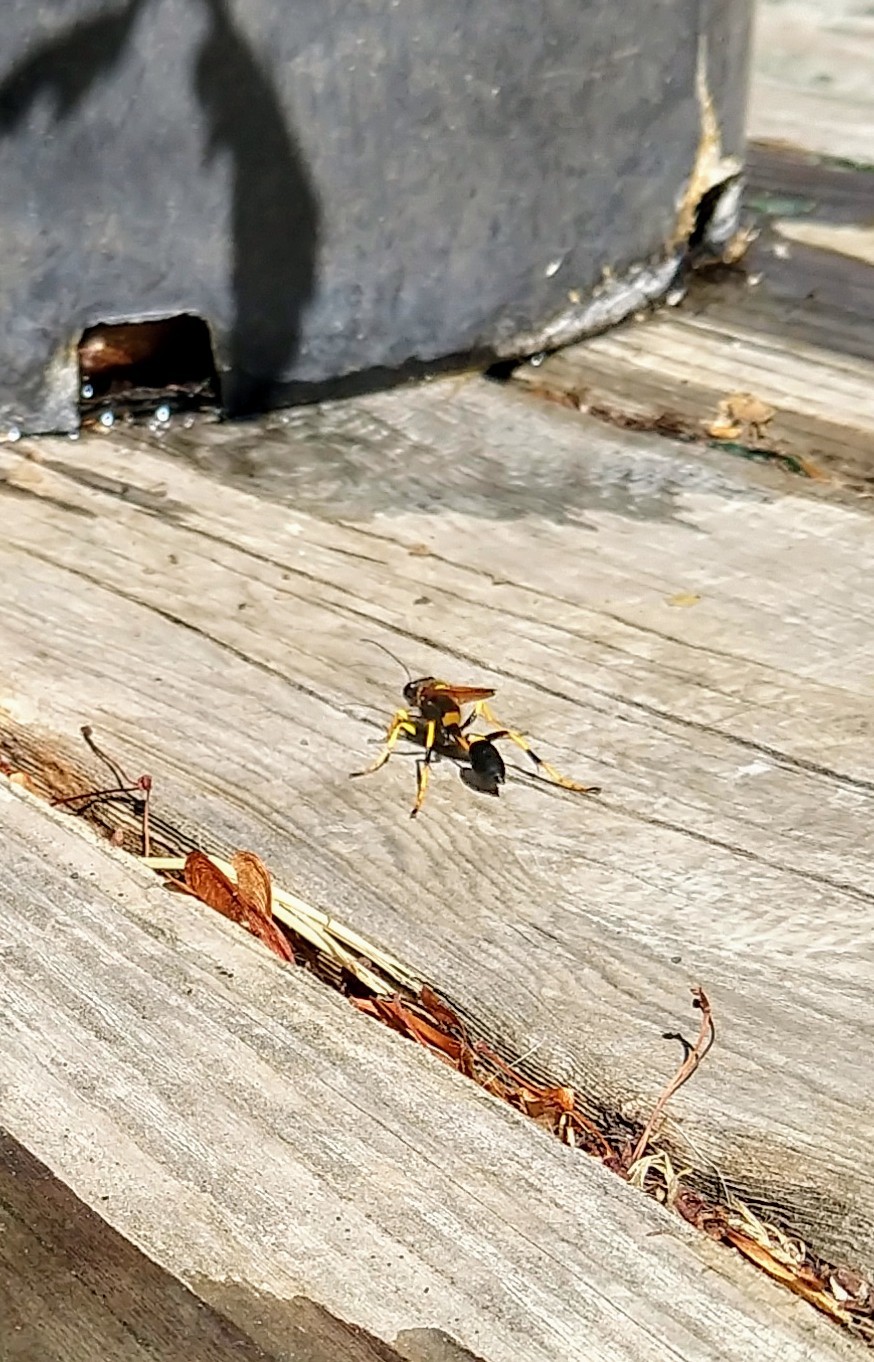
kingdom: Animalia
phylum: Arthropoda
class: Insecta
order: Hymenoptera
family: Sphecidae
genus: Sceliphron
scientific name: Sceliphron caementarium
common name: Mud dauber
